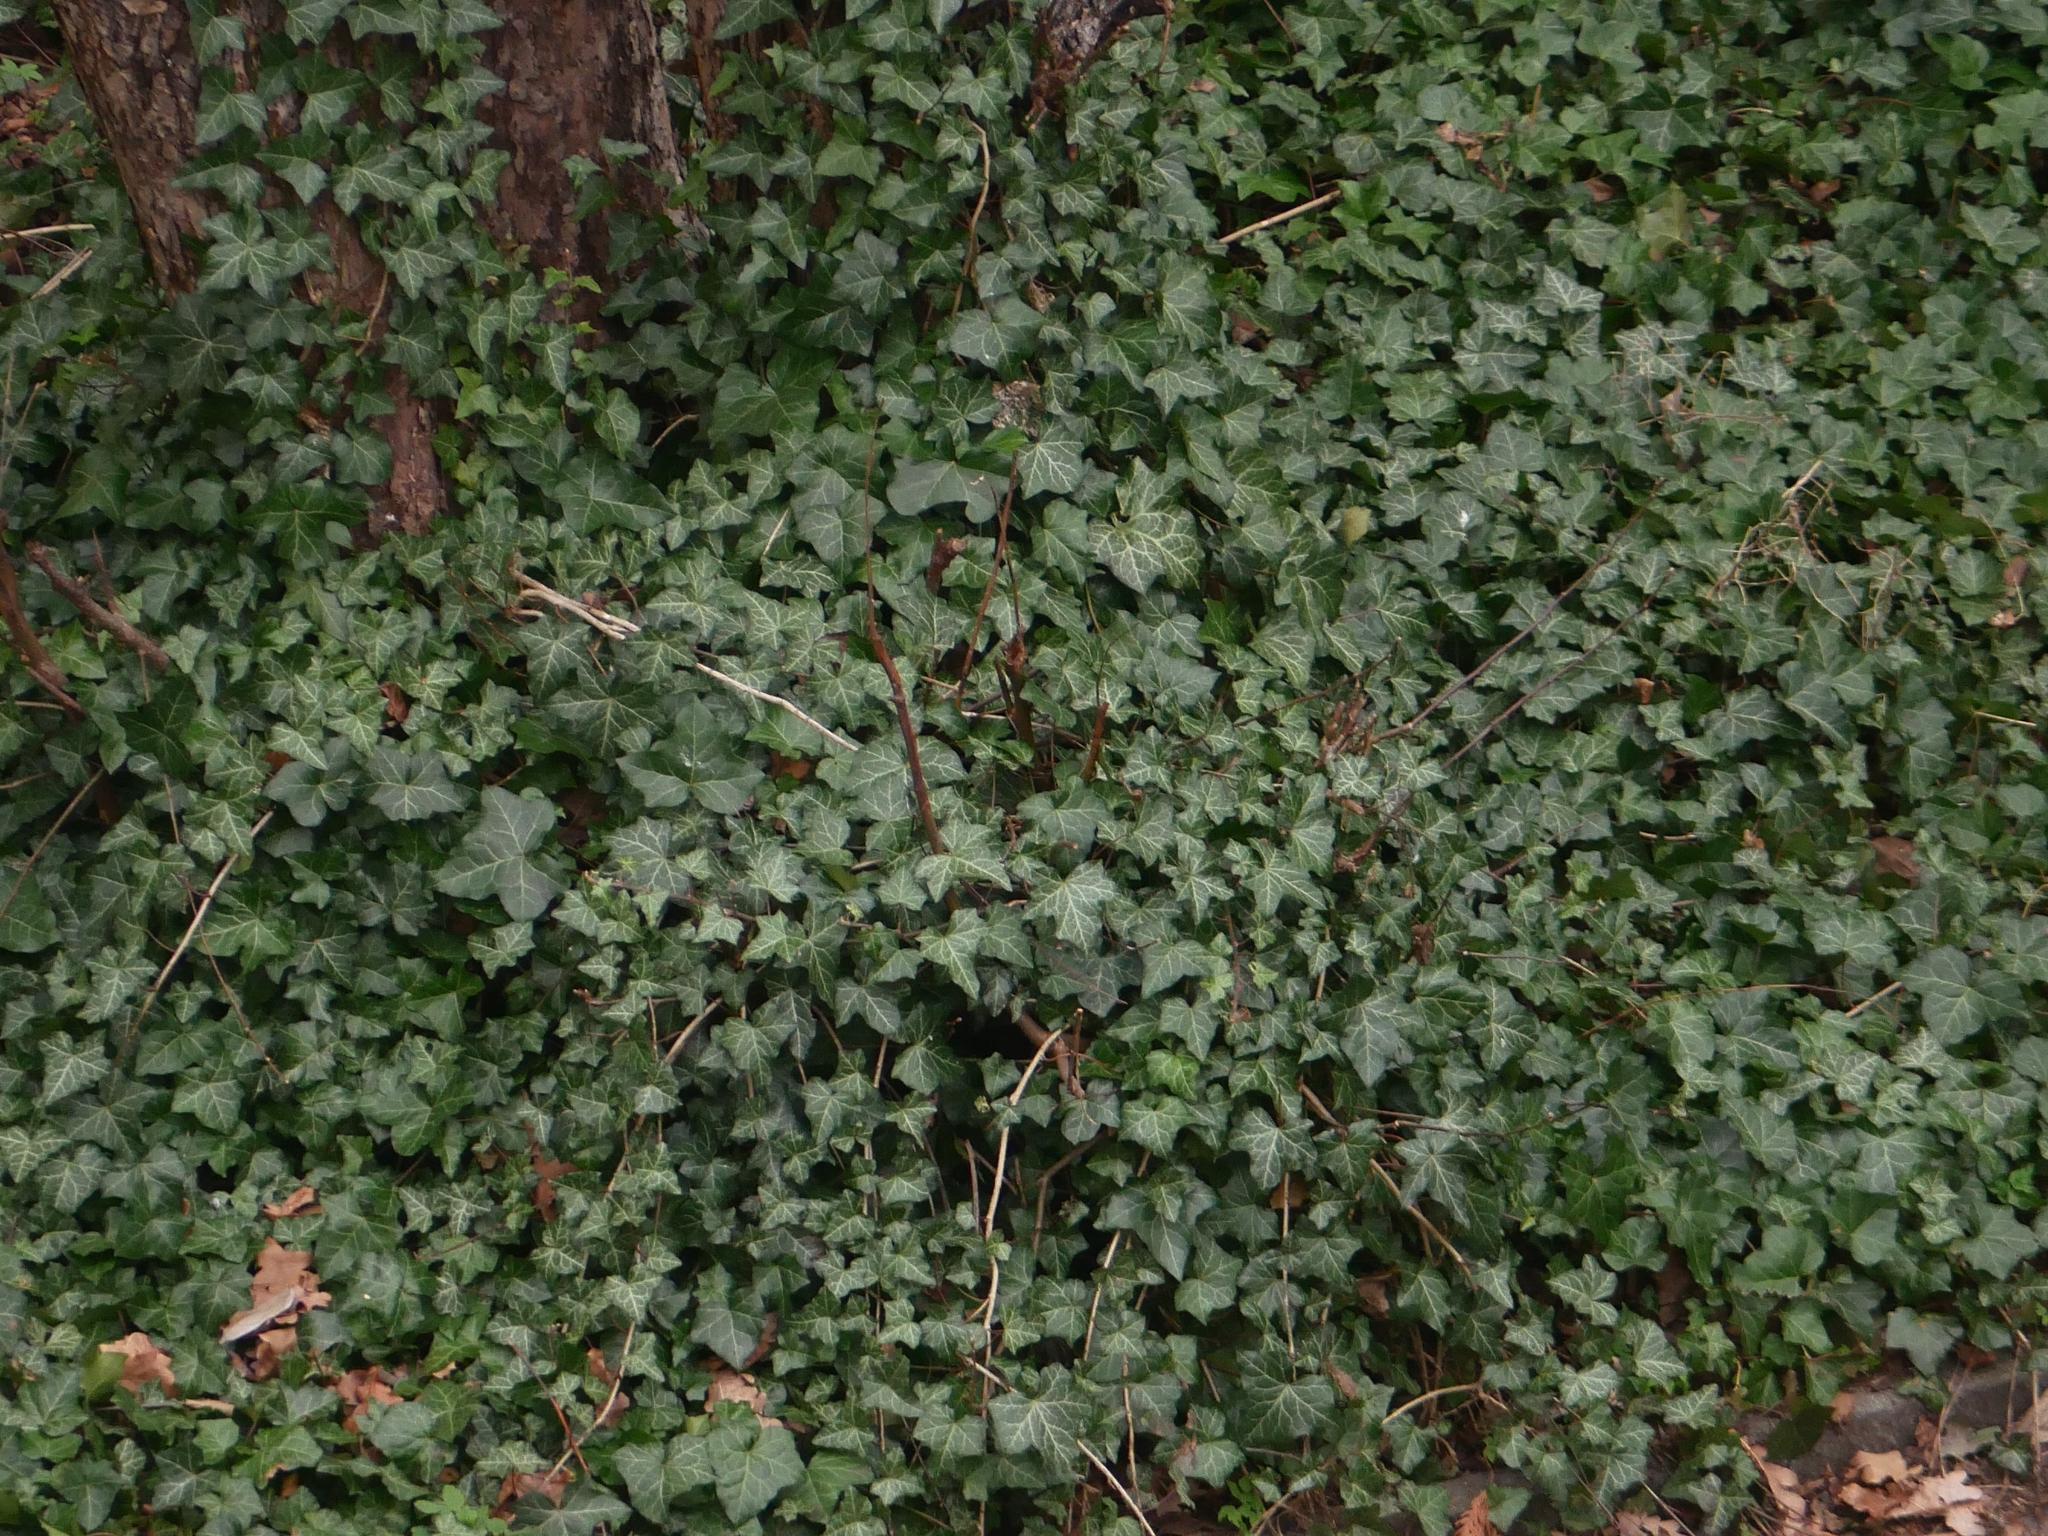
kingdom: Plantae
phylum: Tracheophyta
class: Magnoliopsida
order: Apiales
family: Araliaceae
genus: Hedera
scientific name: Hedera helix
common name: Ivy
